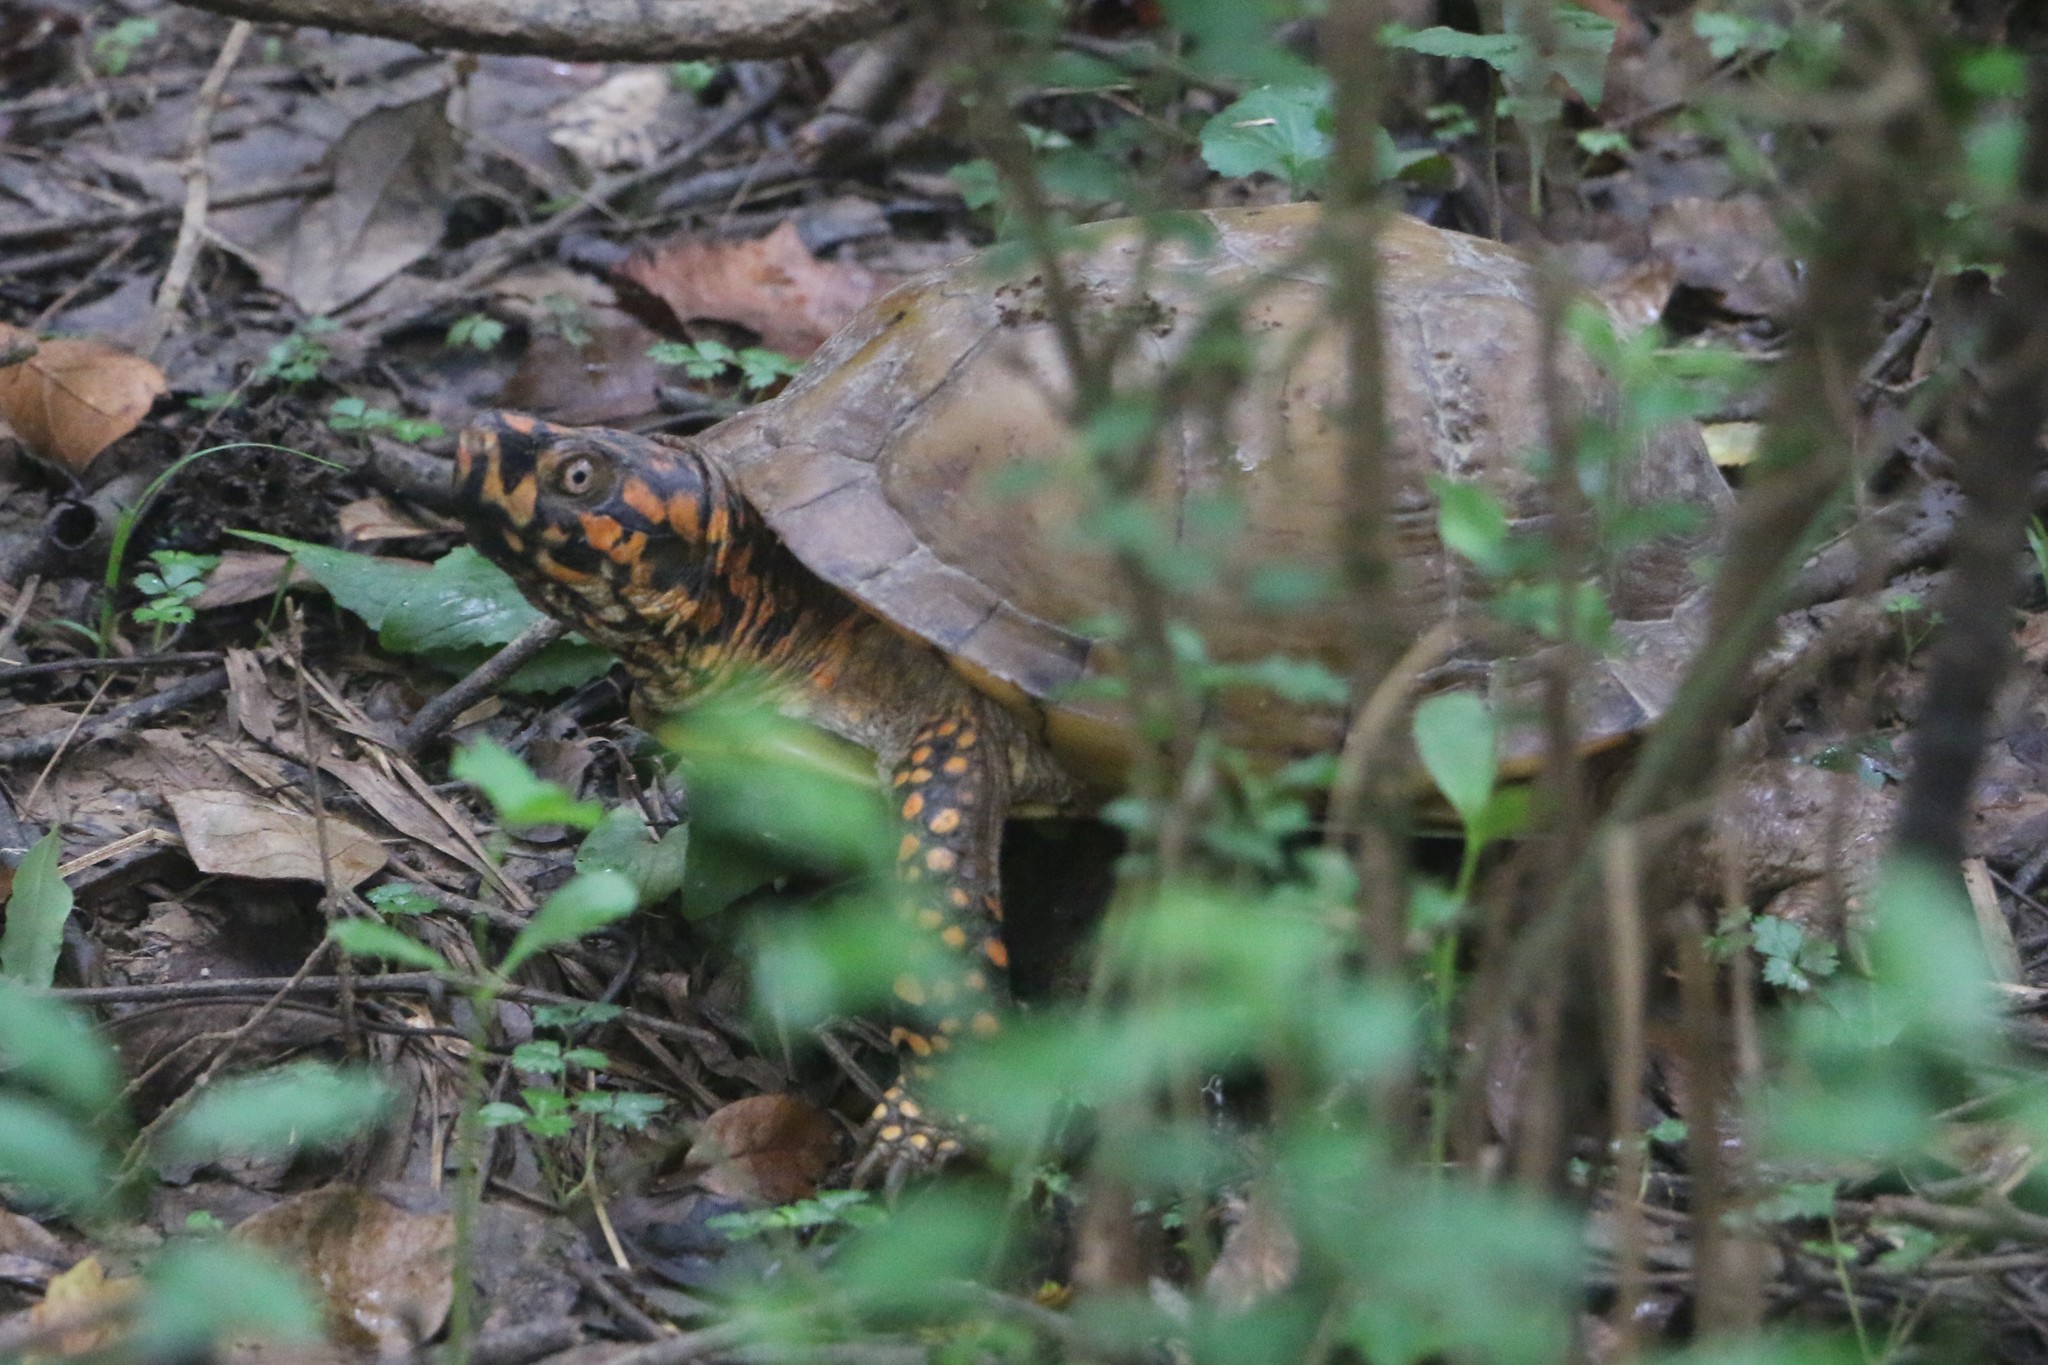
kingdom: Animalia
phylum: Chordata
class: Testudines
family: Emydidae
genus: Terrapene
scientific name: Terrapene carolina
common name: Common box turtle
